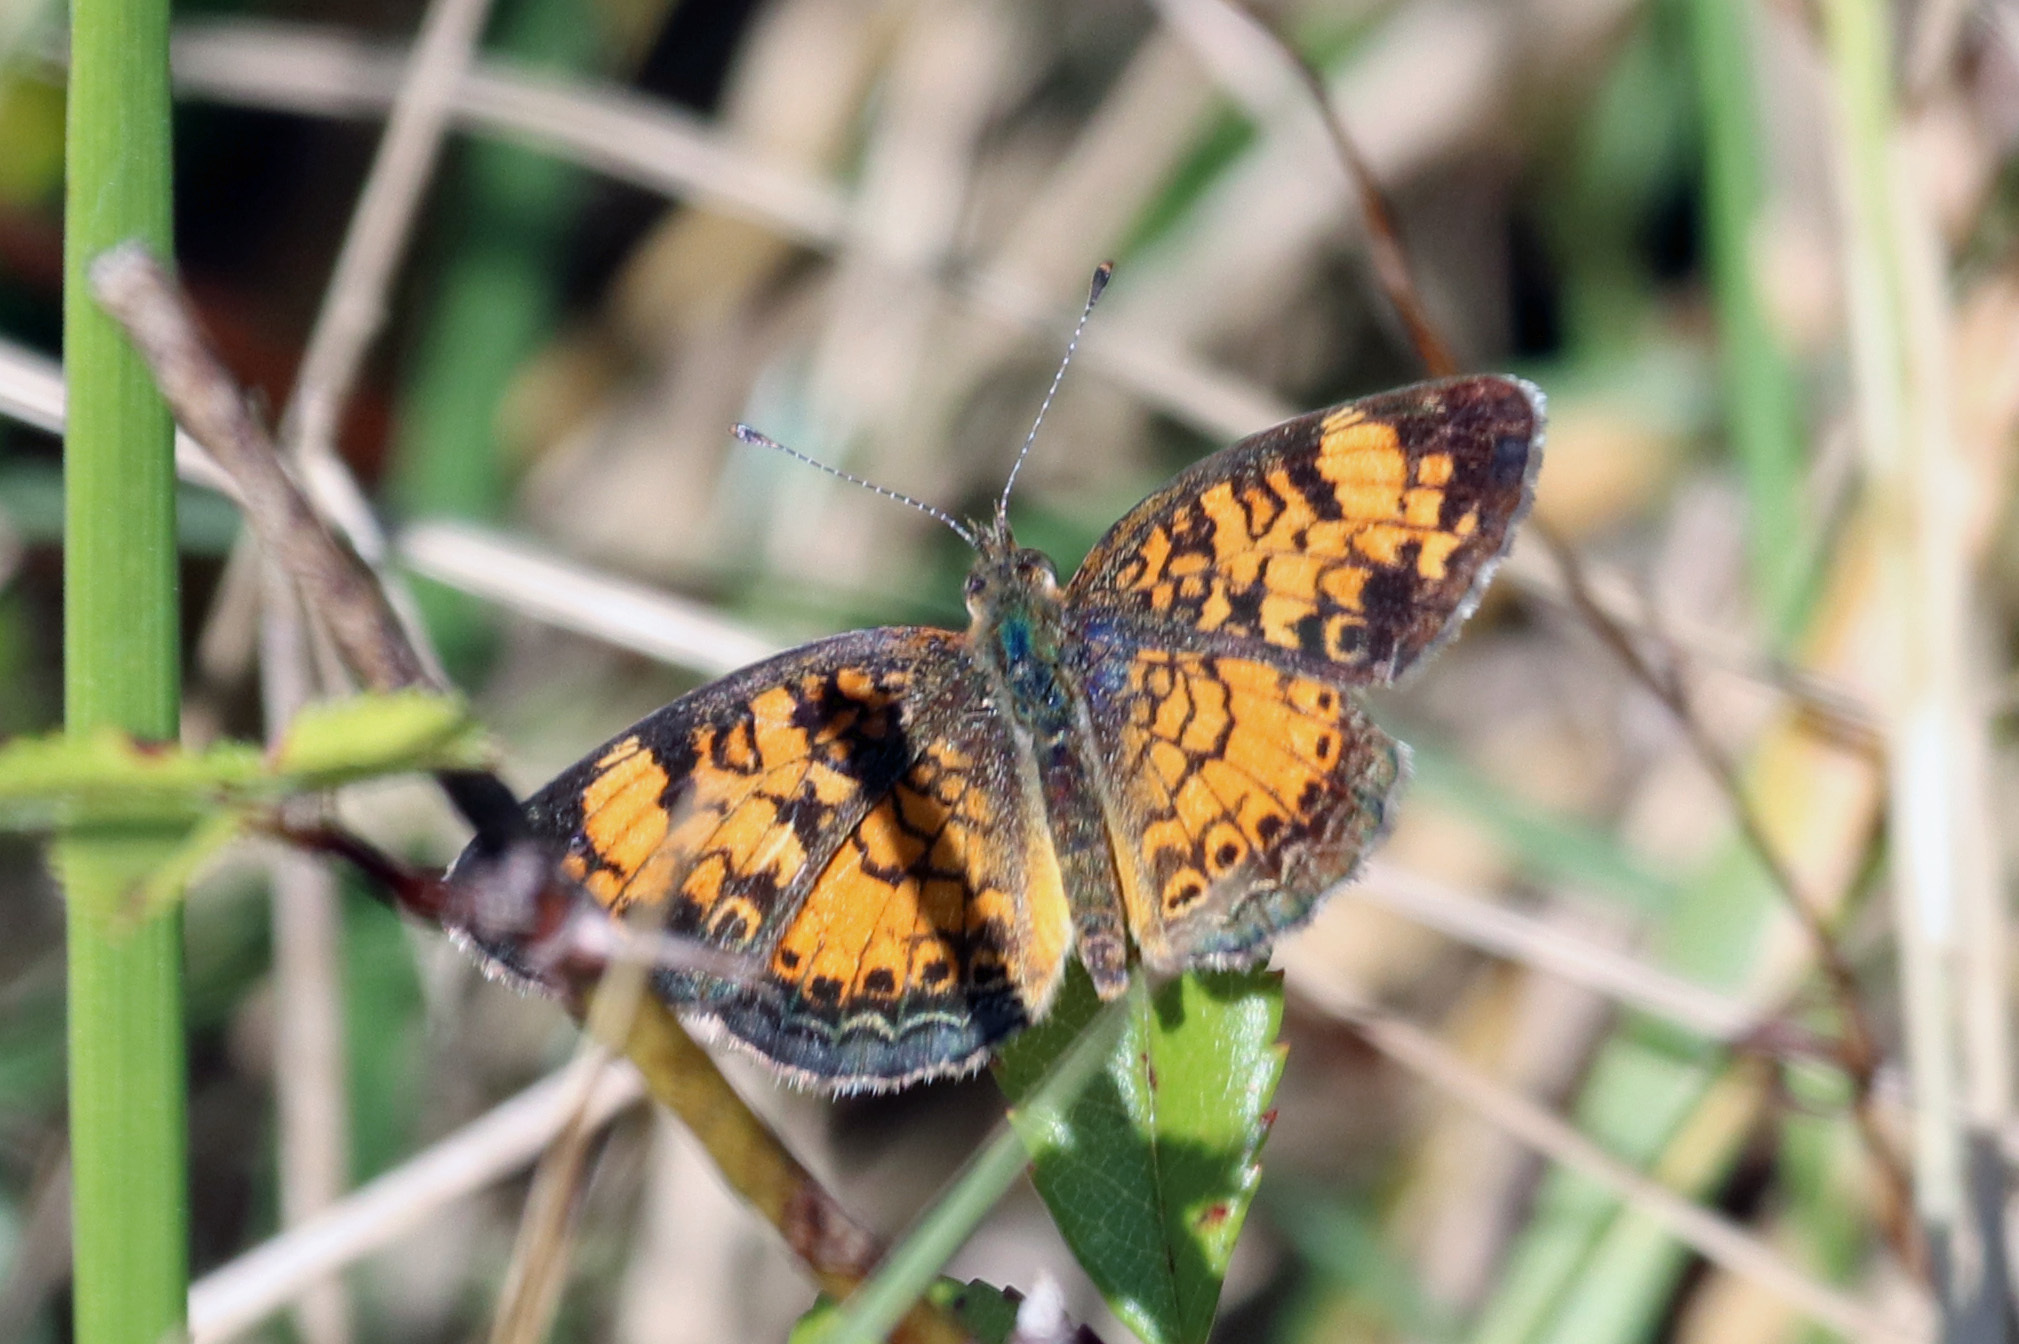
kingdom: Animalia
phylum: Arthropoda
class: Insecta
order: Lepidoptera
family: Nymphalidae
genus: Phyciodes
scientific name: Phyciodes tharos
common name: Pearl crescent
